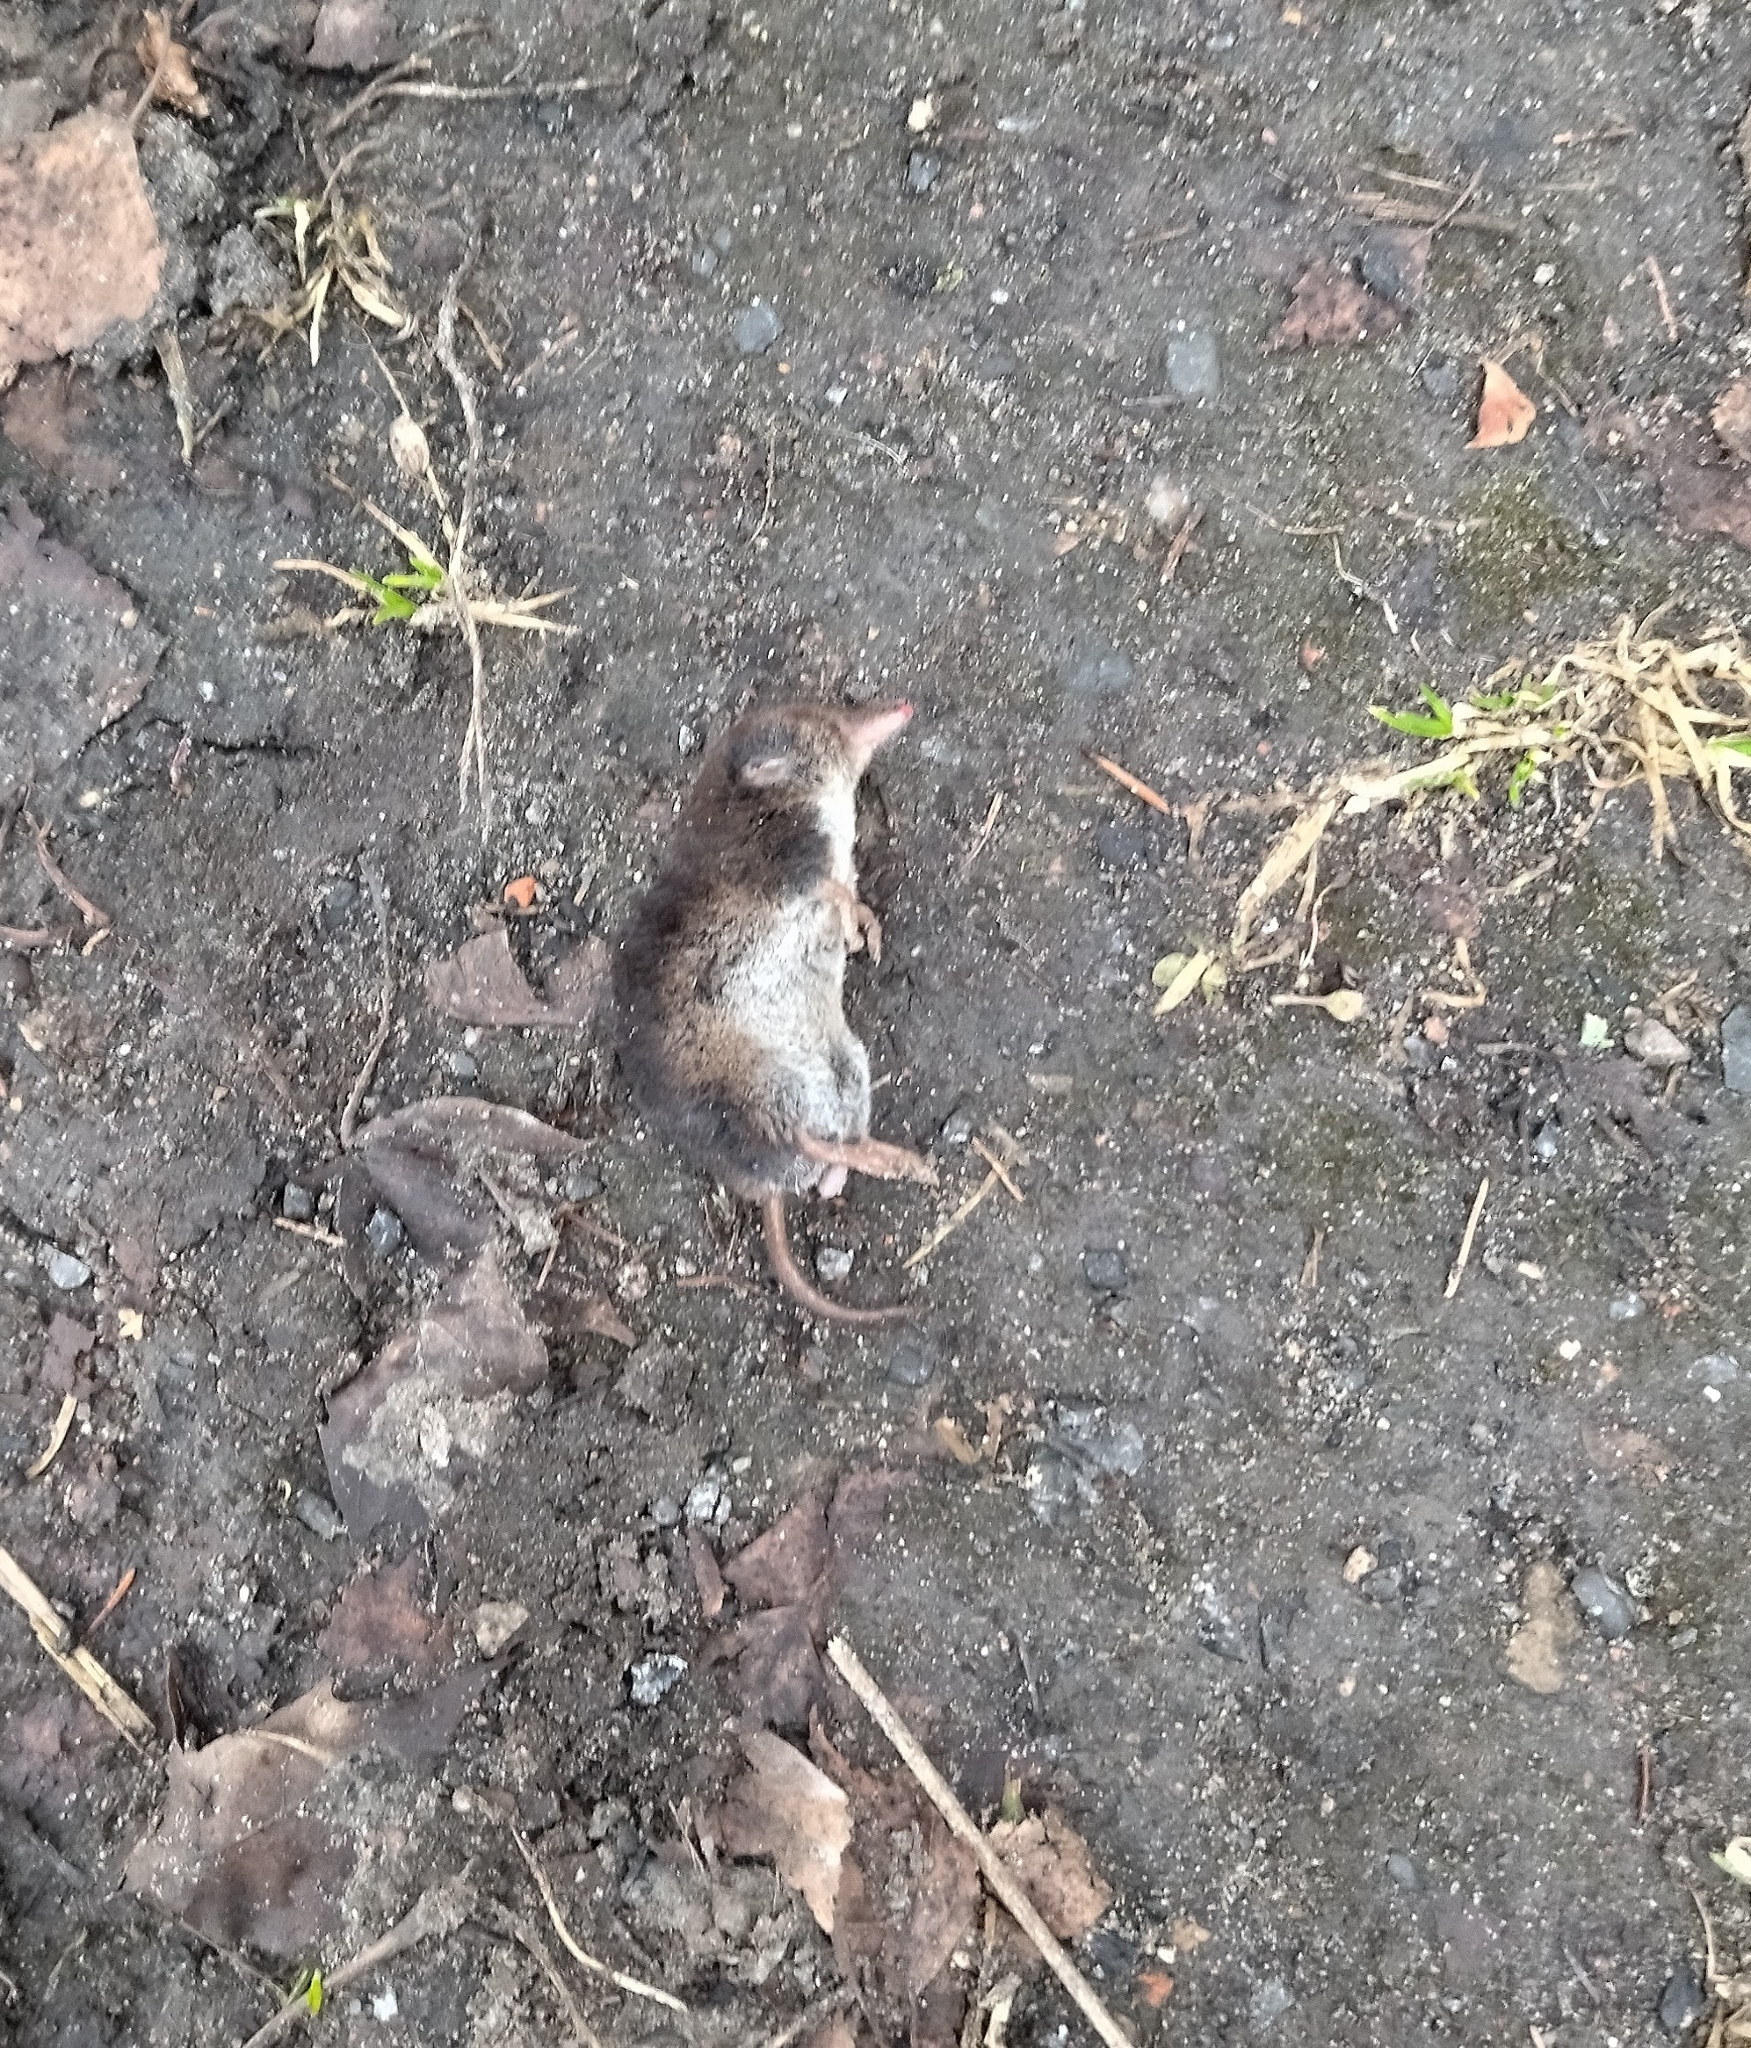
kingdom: Animalia
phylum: Chordata
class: Mammalia
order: Soricomorpha
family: Soricidae
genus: Sorex
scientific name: Sorex araneus
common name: Common shrew
